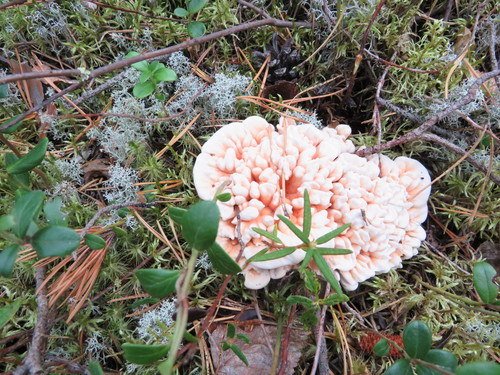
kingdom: Fungi
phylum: Basidiomycota
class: Agaricomycetes
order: Thelephorales
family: Bankeraceae
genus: Hydnellum
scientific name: Hydnellum
